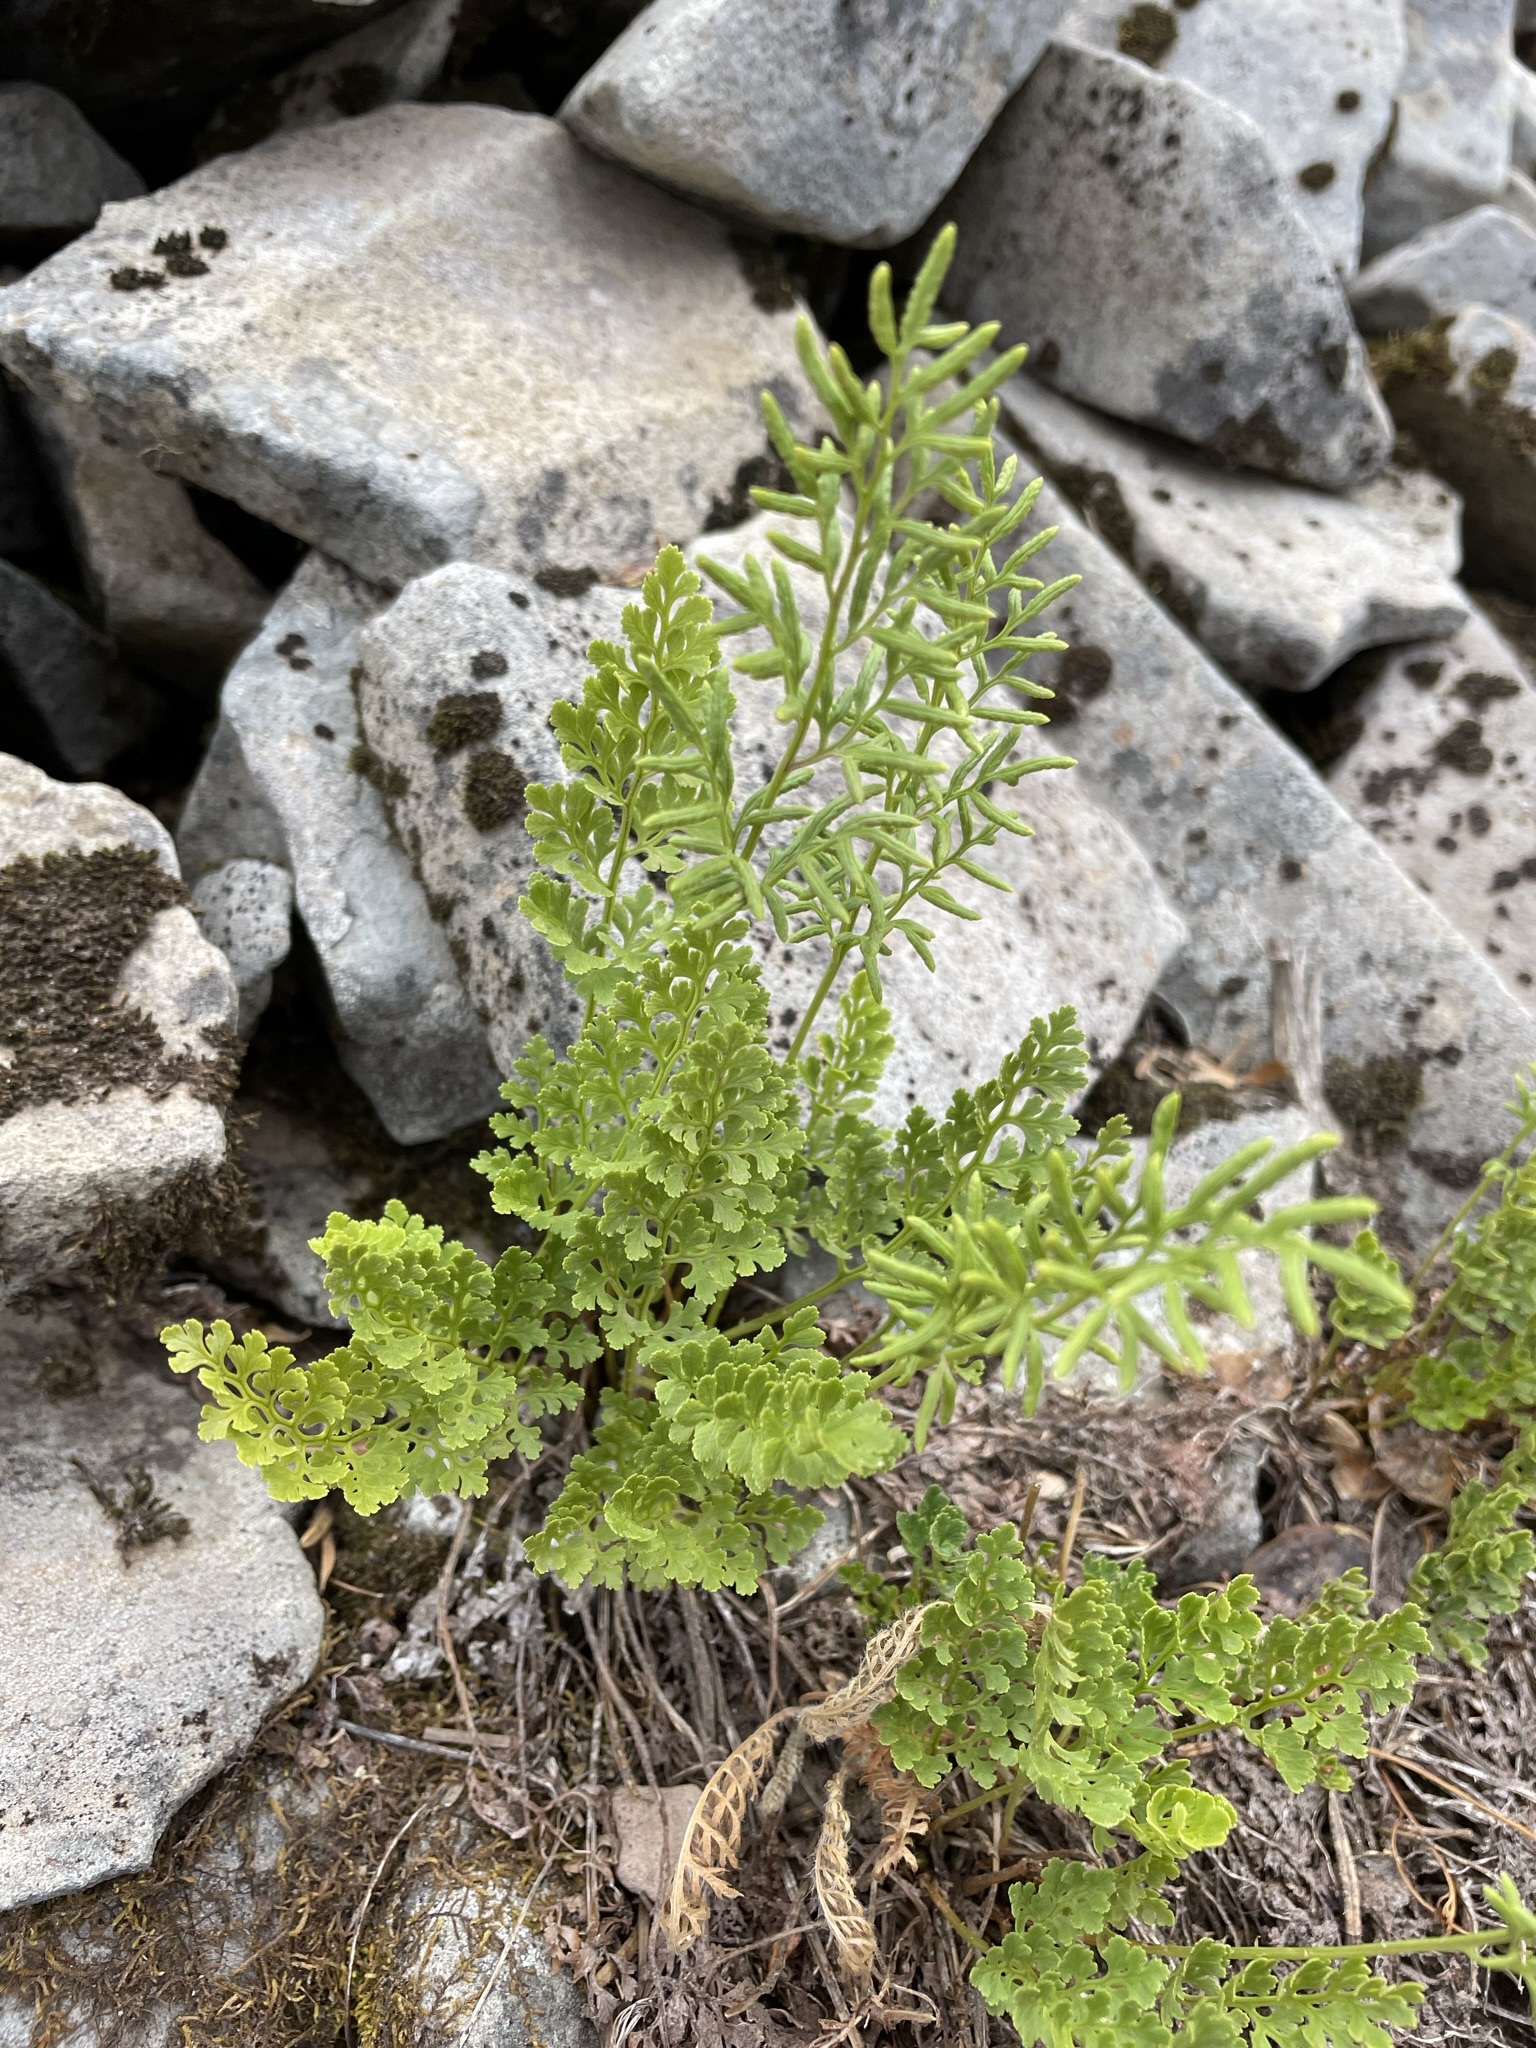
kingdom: Plantae
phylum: Tracheophyta
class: Polypodiopsida
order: Polypodiales
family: Pteridaceae
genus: Cryptogramma
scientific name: Cryptogramma acrostichoides
